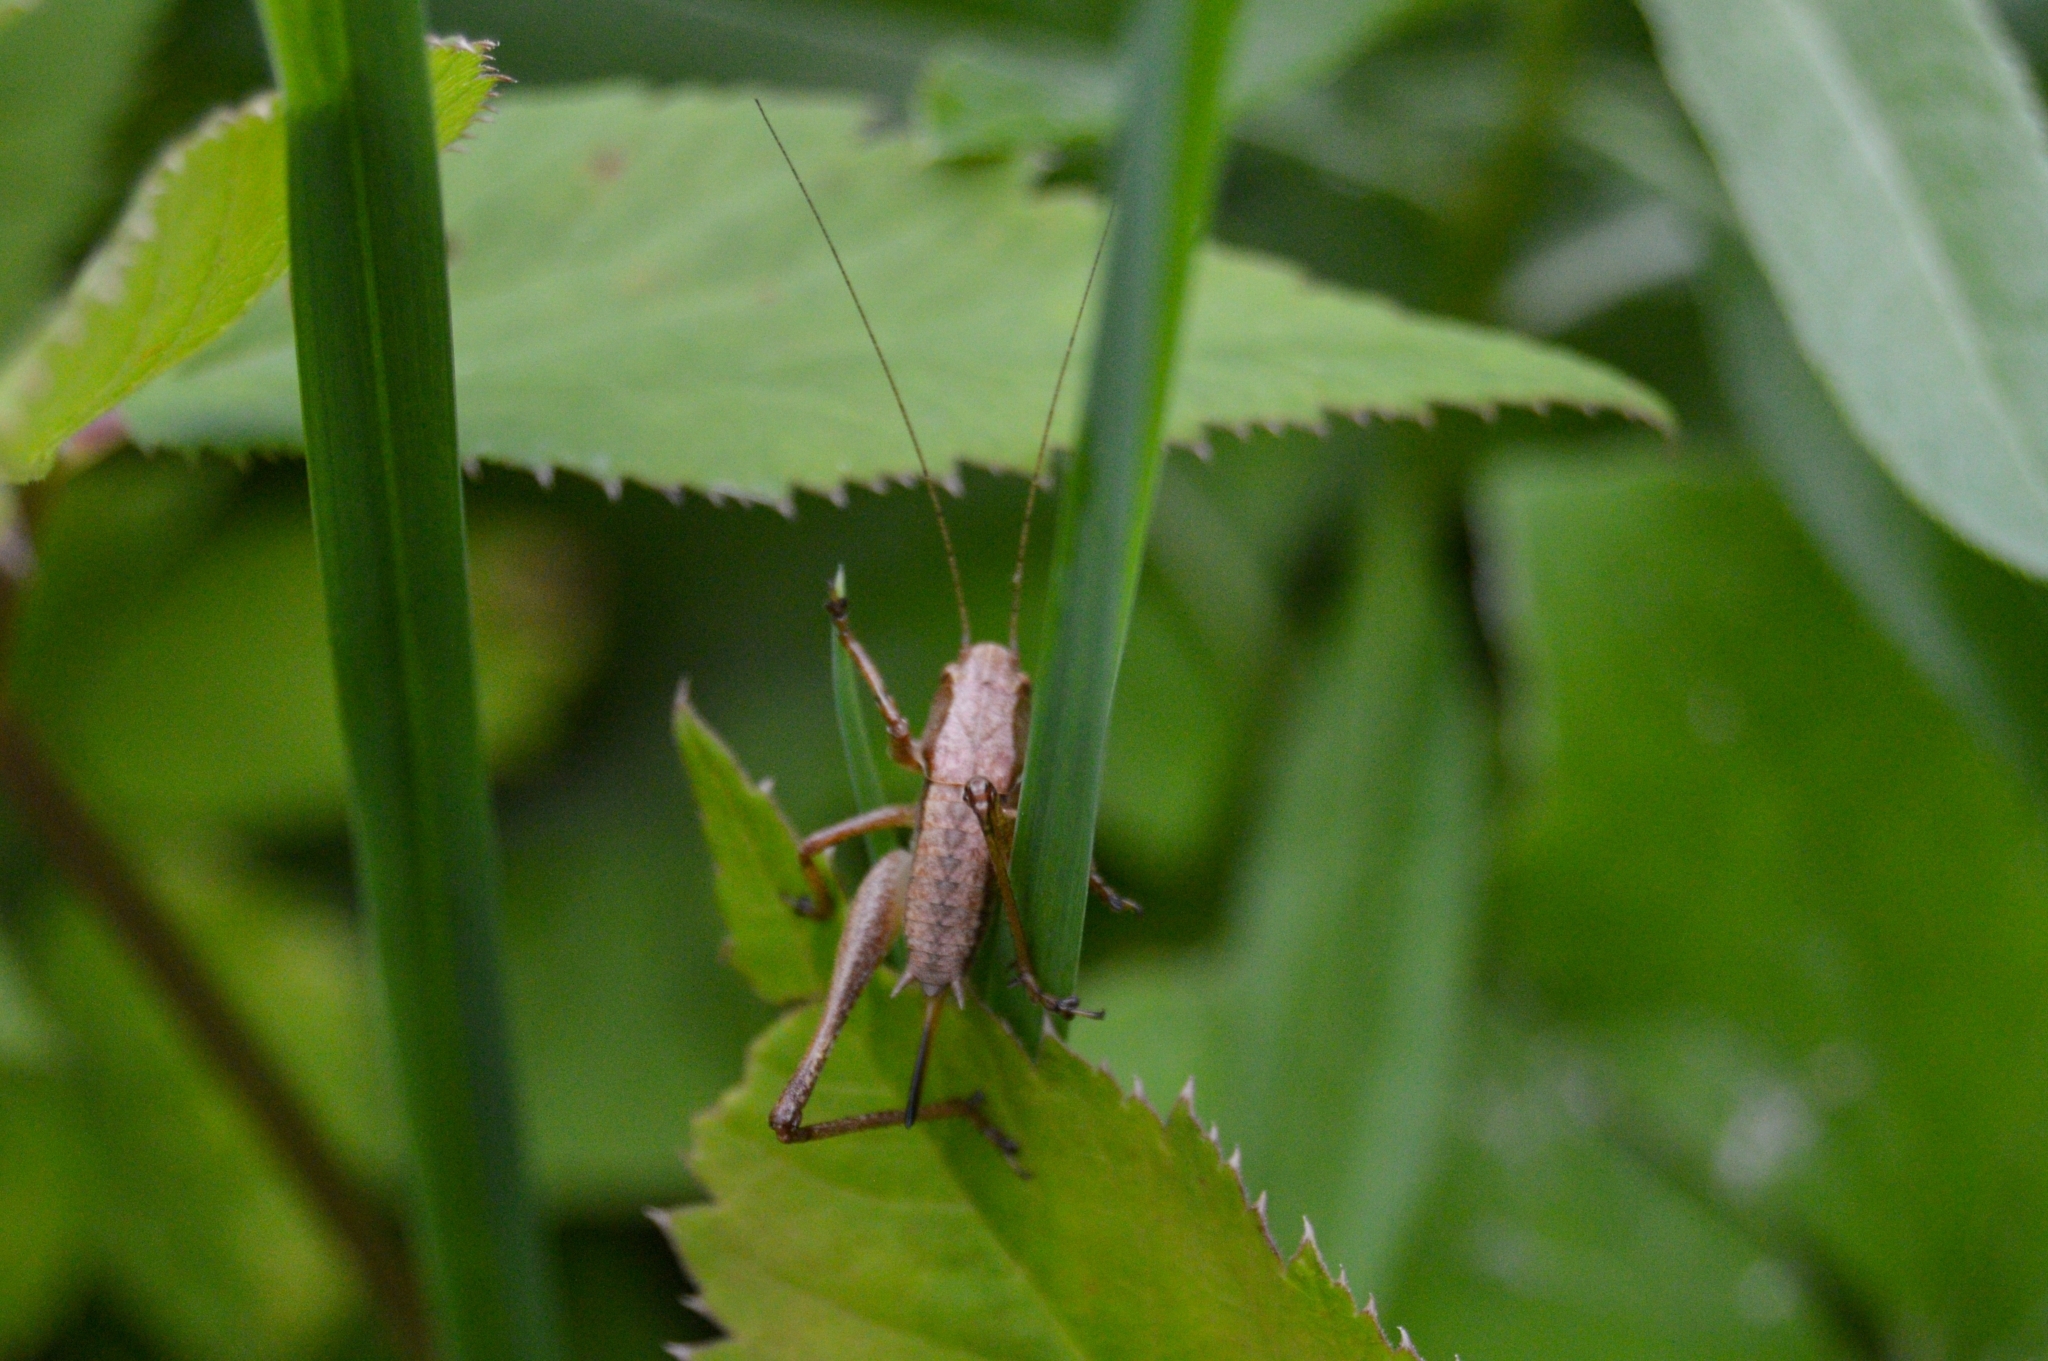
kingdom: Animalia
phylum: Arthropoda
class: Insecta
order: Orthoptera
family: Tettigoniidae
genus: Pholidoptera
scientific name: Pholidoptera griseoaptera
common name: Dark bush-cricket
